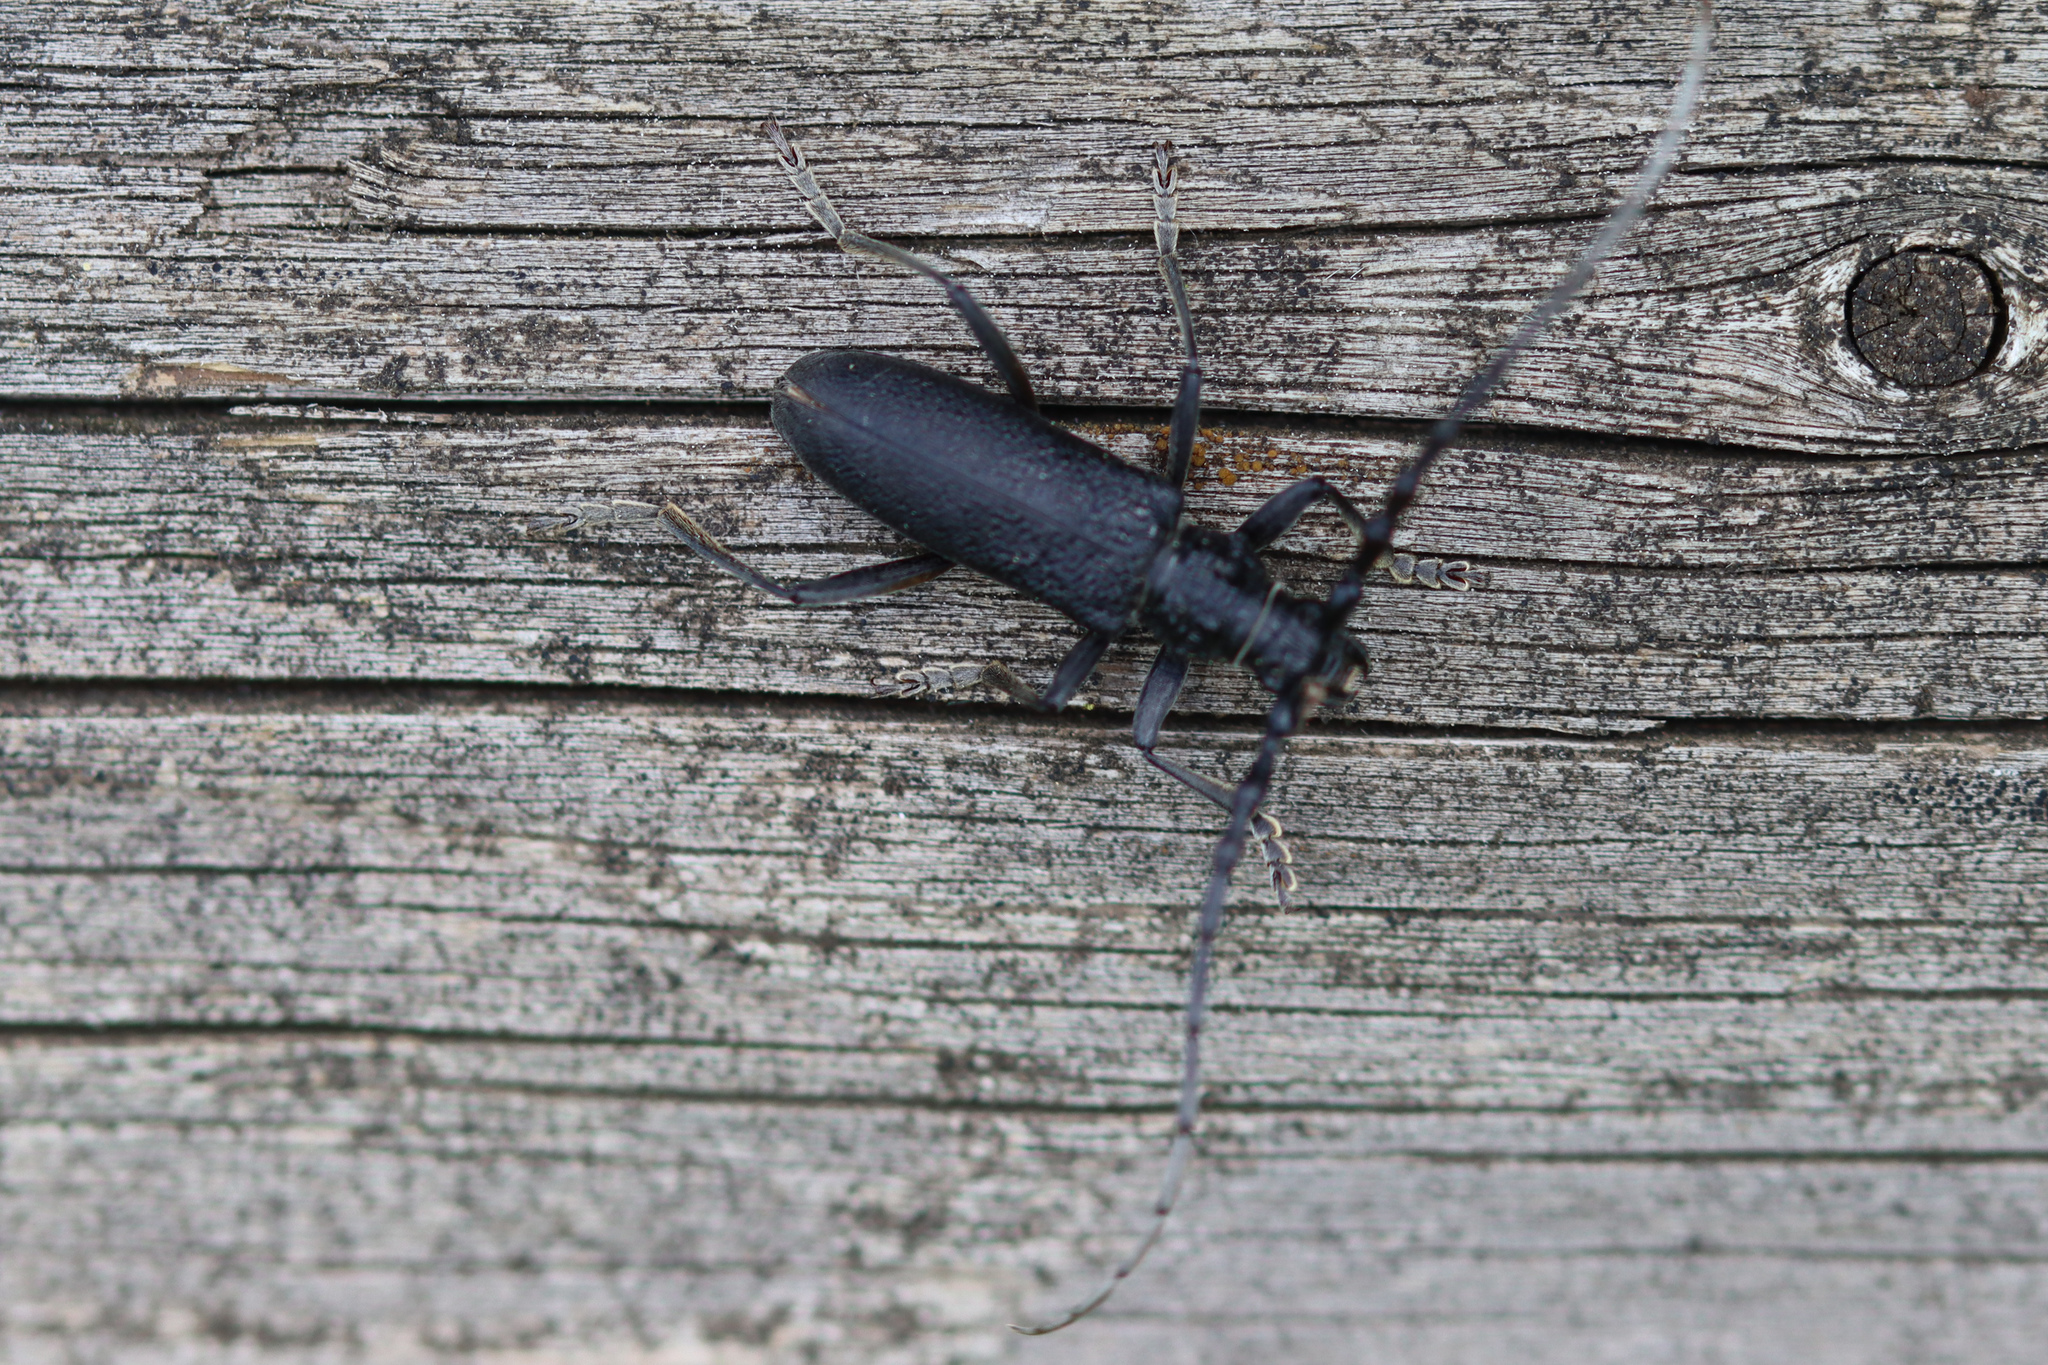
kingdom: Animalia
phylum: Arthropoda
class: Insecta
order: Coleoptera
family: Cerambycidae
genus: Cerambyx
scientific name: Cerambyx scopolii
